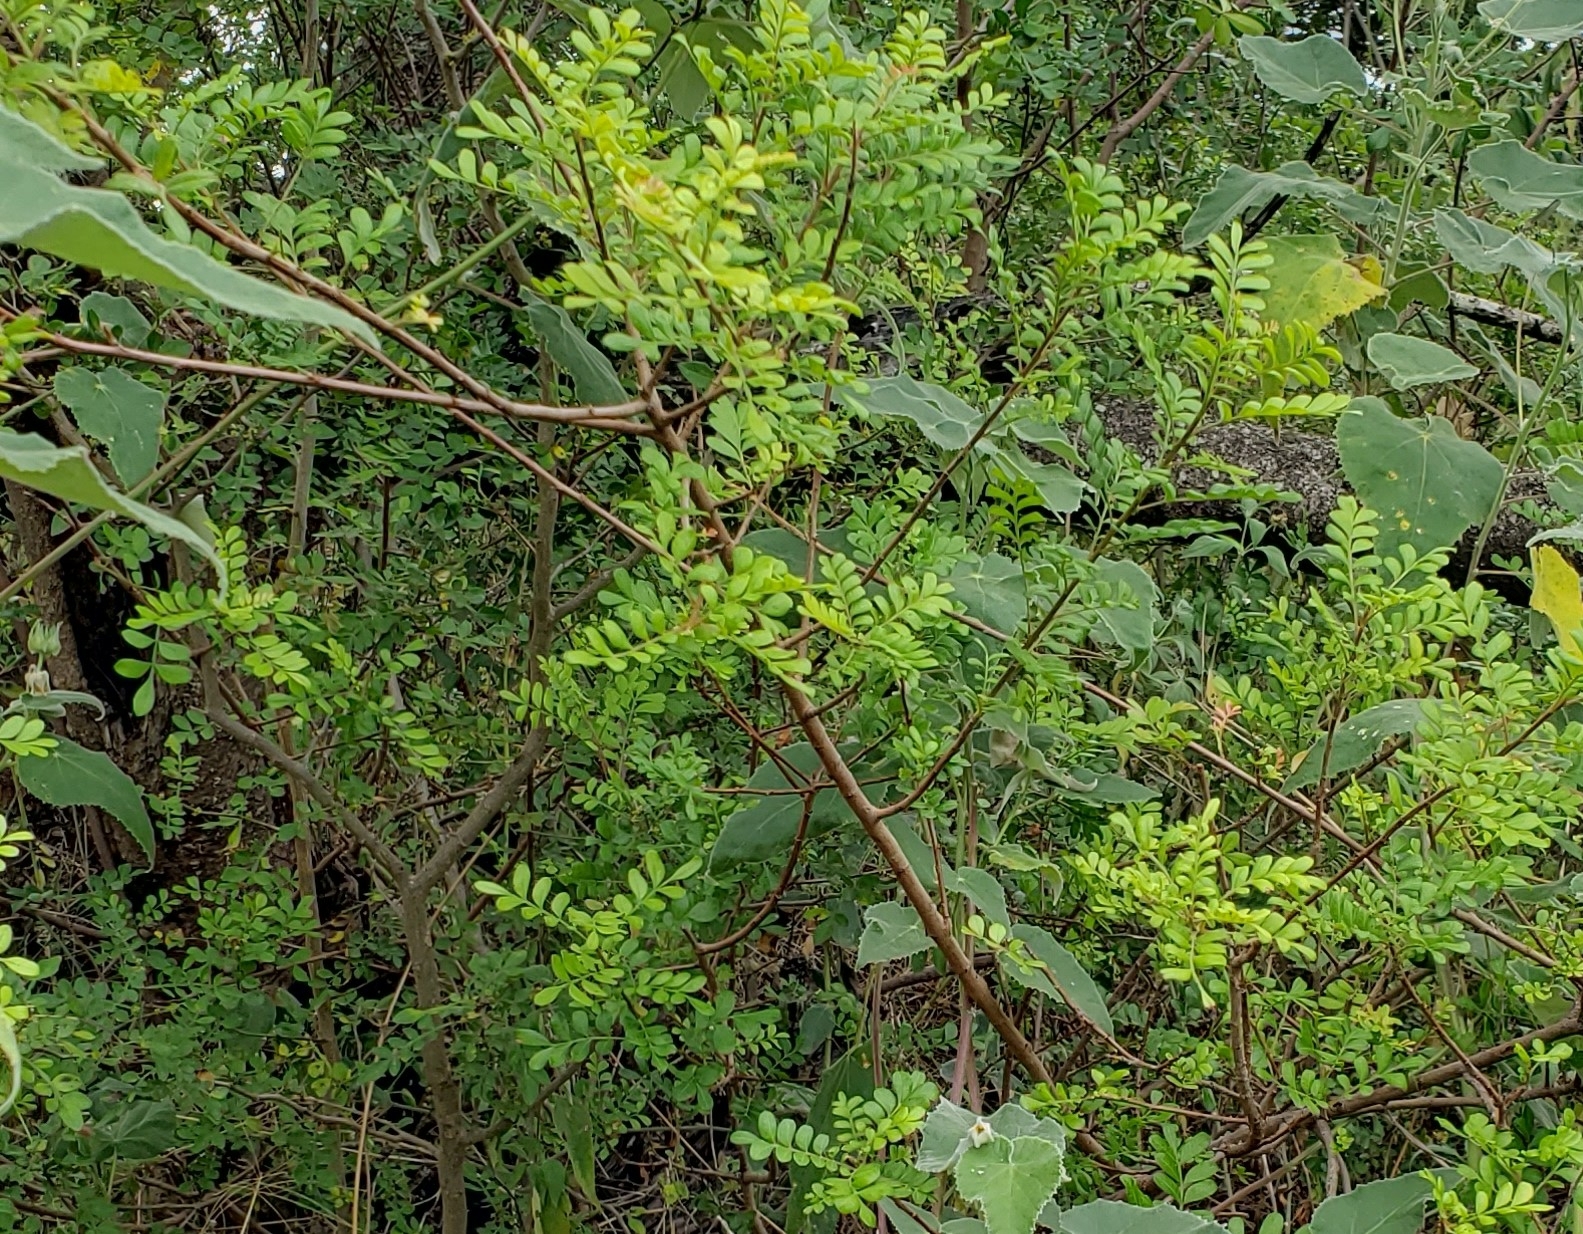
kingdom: Plantae
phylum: Tracheophyta
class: Magnoliopsida
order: Sapindales
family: Anacardiaceae
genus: Pistacia
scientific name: Pistacia mexicana
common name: Mexican pistachio
